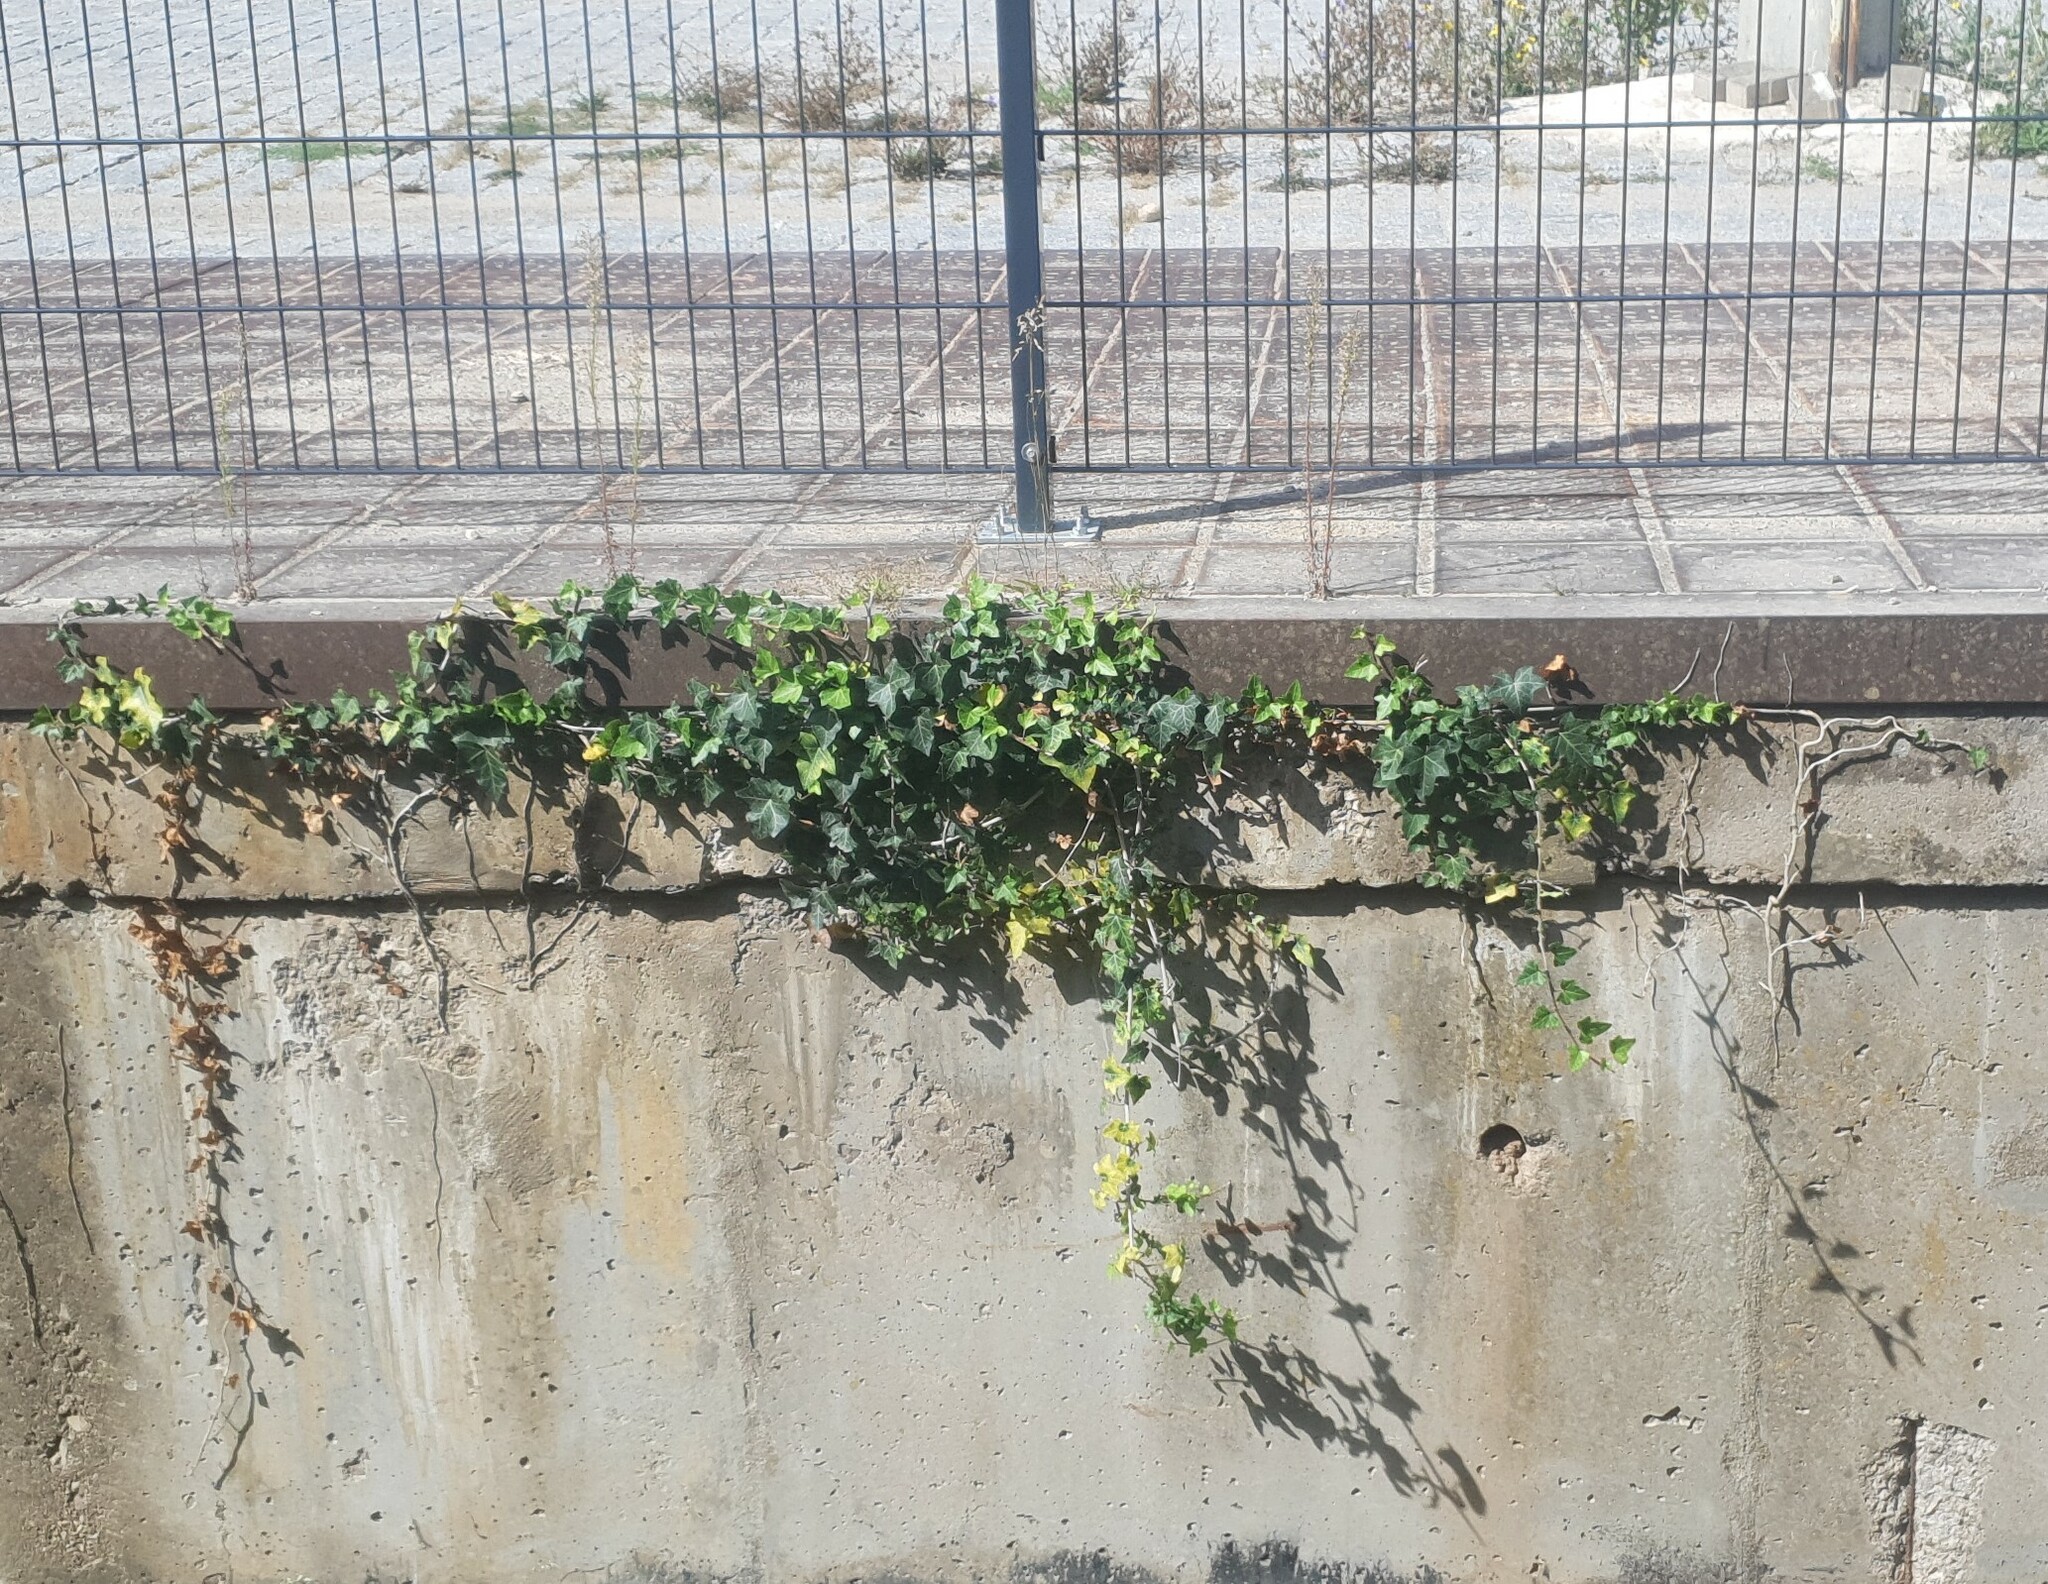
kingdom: Plantae
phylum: Tracheophyta
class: Magnoliopsida
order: Apiales
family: Araliaceae
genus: Hedera
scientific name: Hedera helix
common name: Ivy
